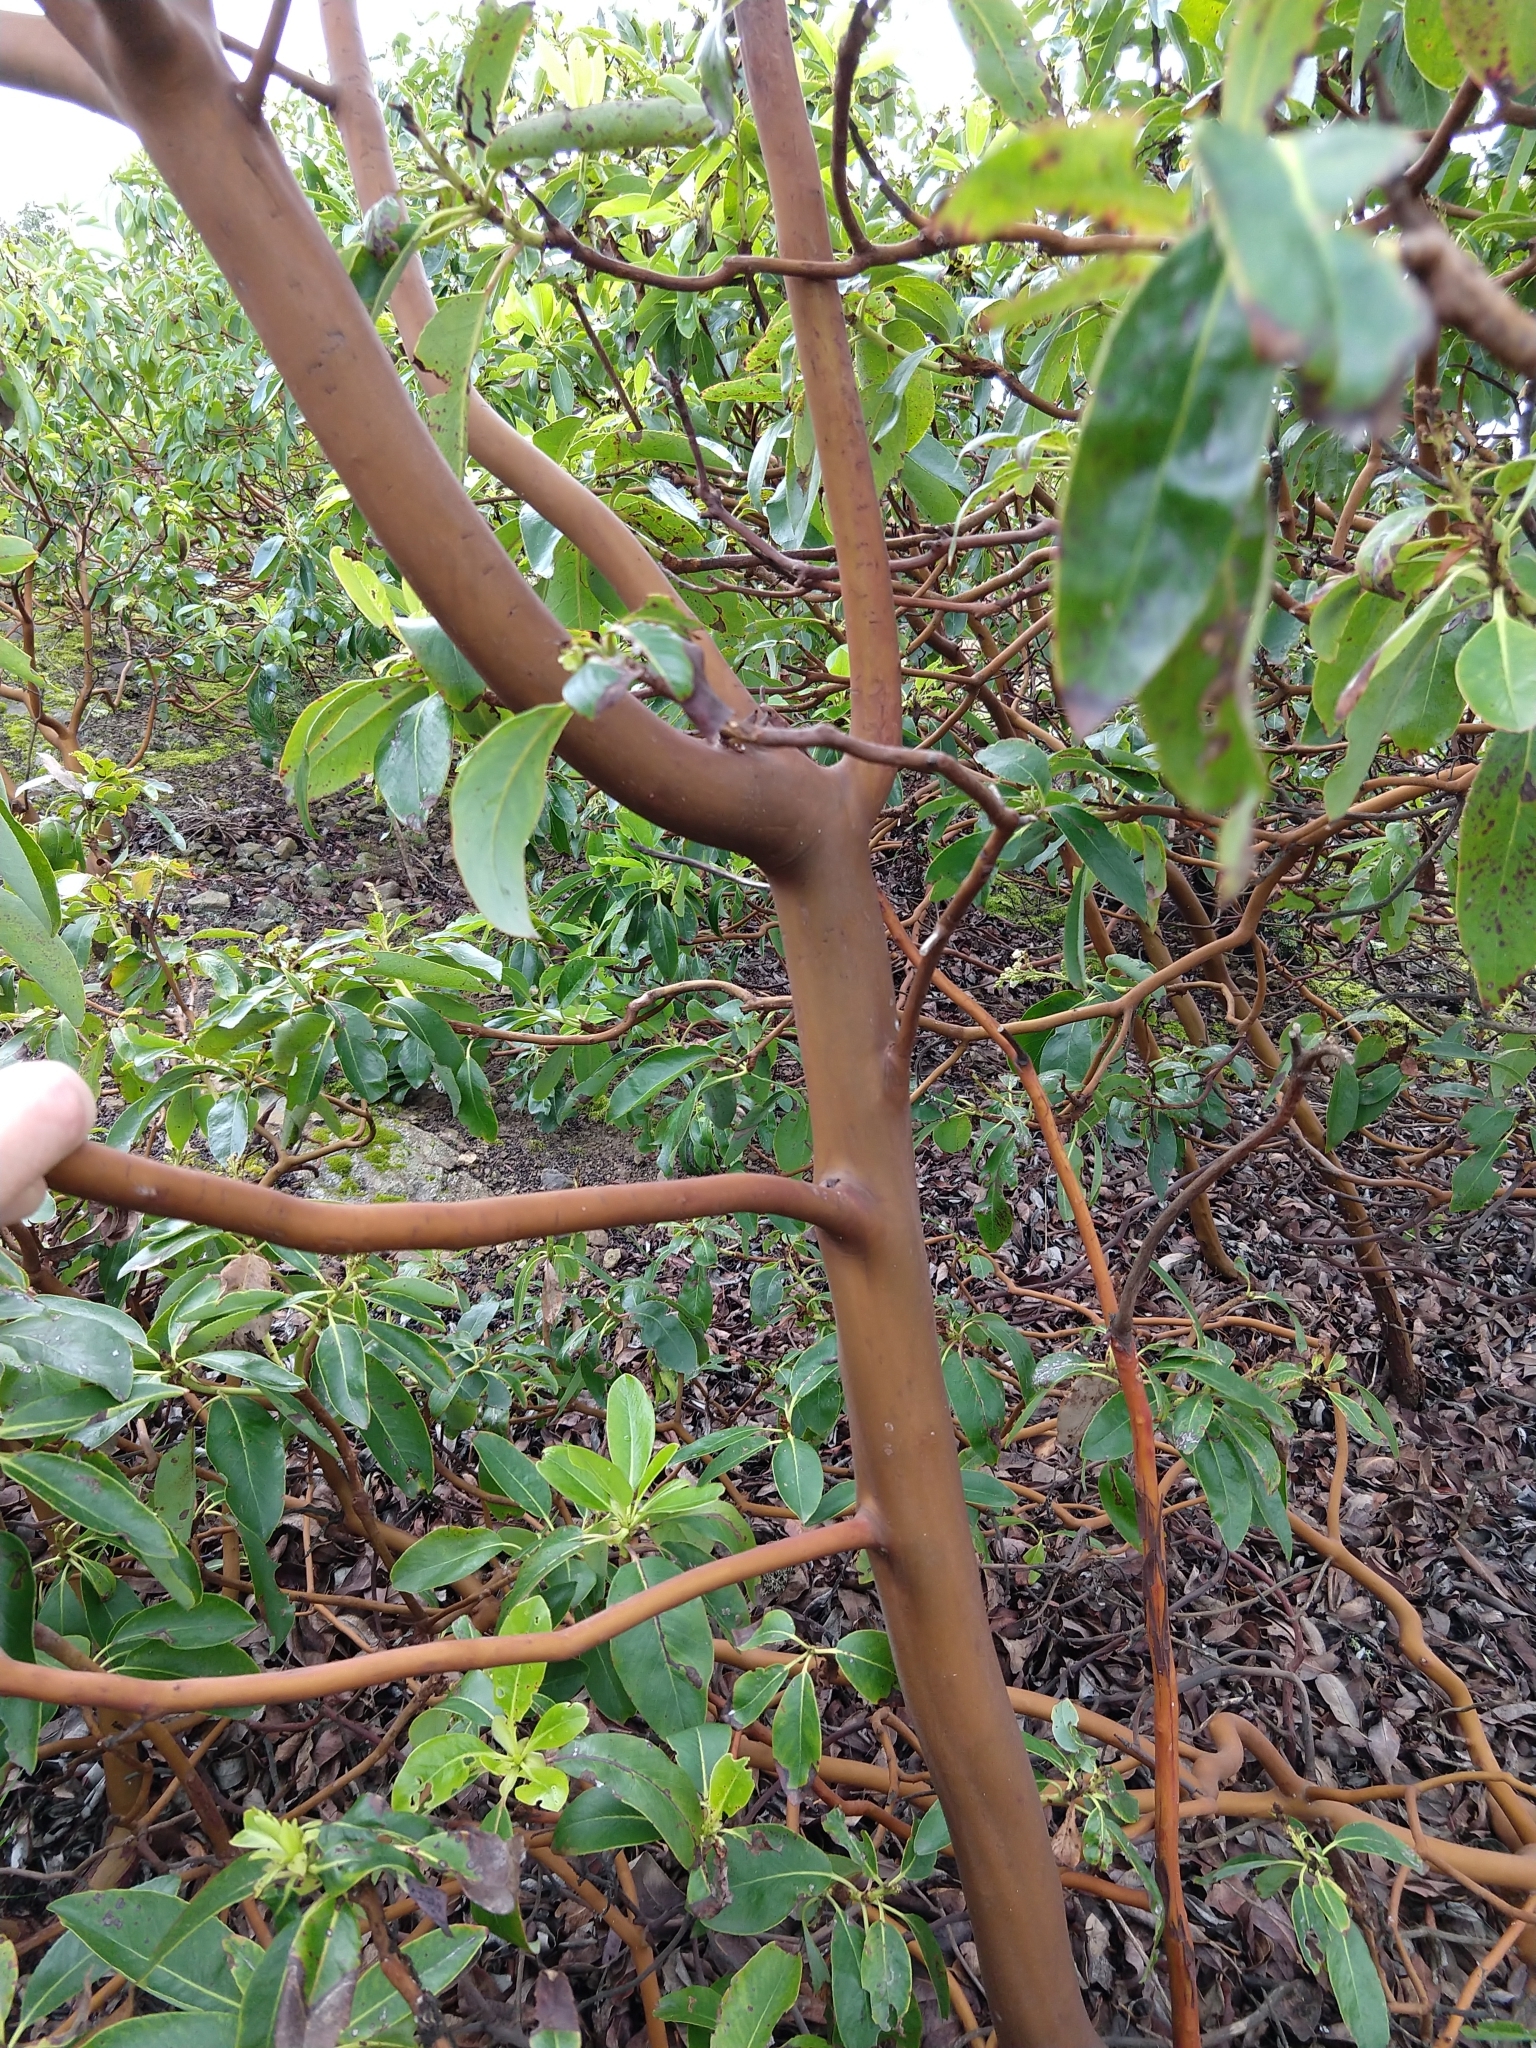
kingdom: Plantae
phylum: Tracheophyta
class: Magnoliopsida
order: Ericales
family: Ericaceae
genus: Arbutus
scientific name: Arbutus menziesii
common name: Pacific madrone
